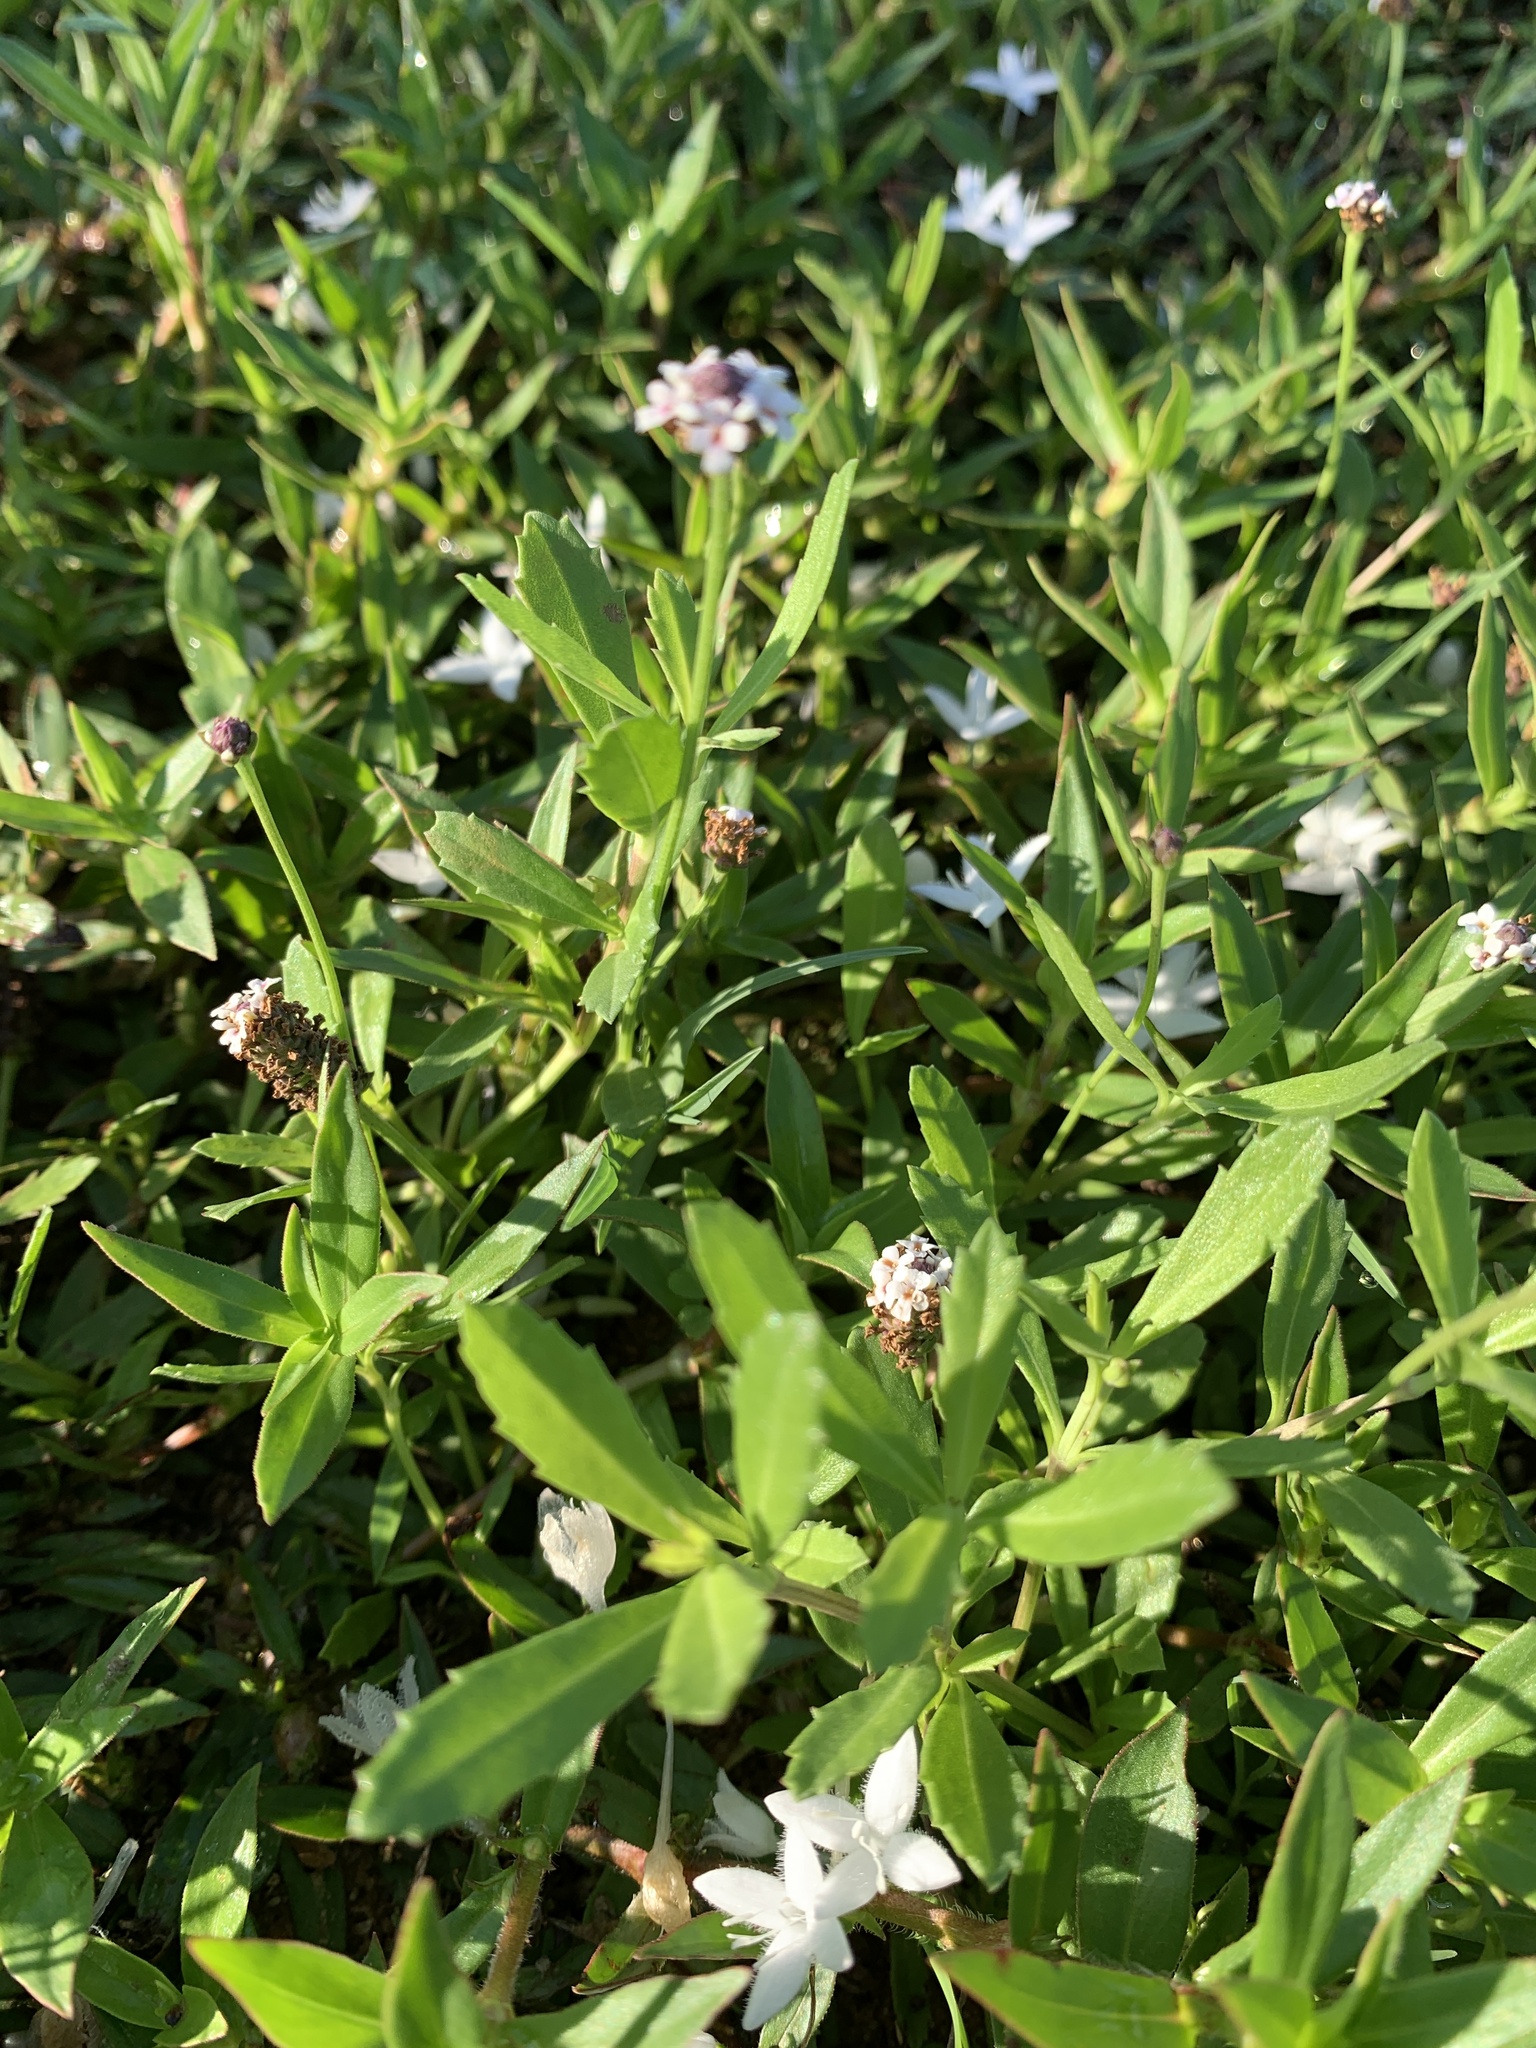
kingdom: Plantae
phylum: Tracheophyta
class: Magnoliopsida
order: Lamiales
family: Verbenaceae
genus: Phyla
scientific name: Phyla nodiflora
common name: Frogfruit
